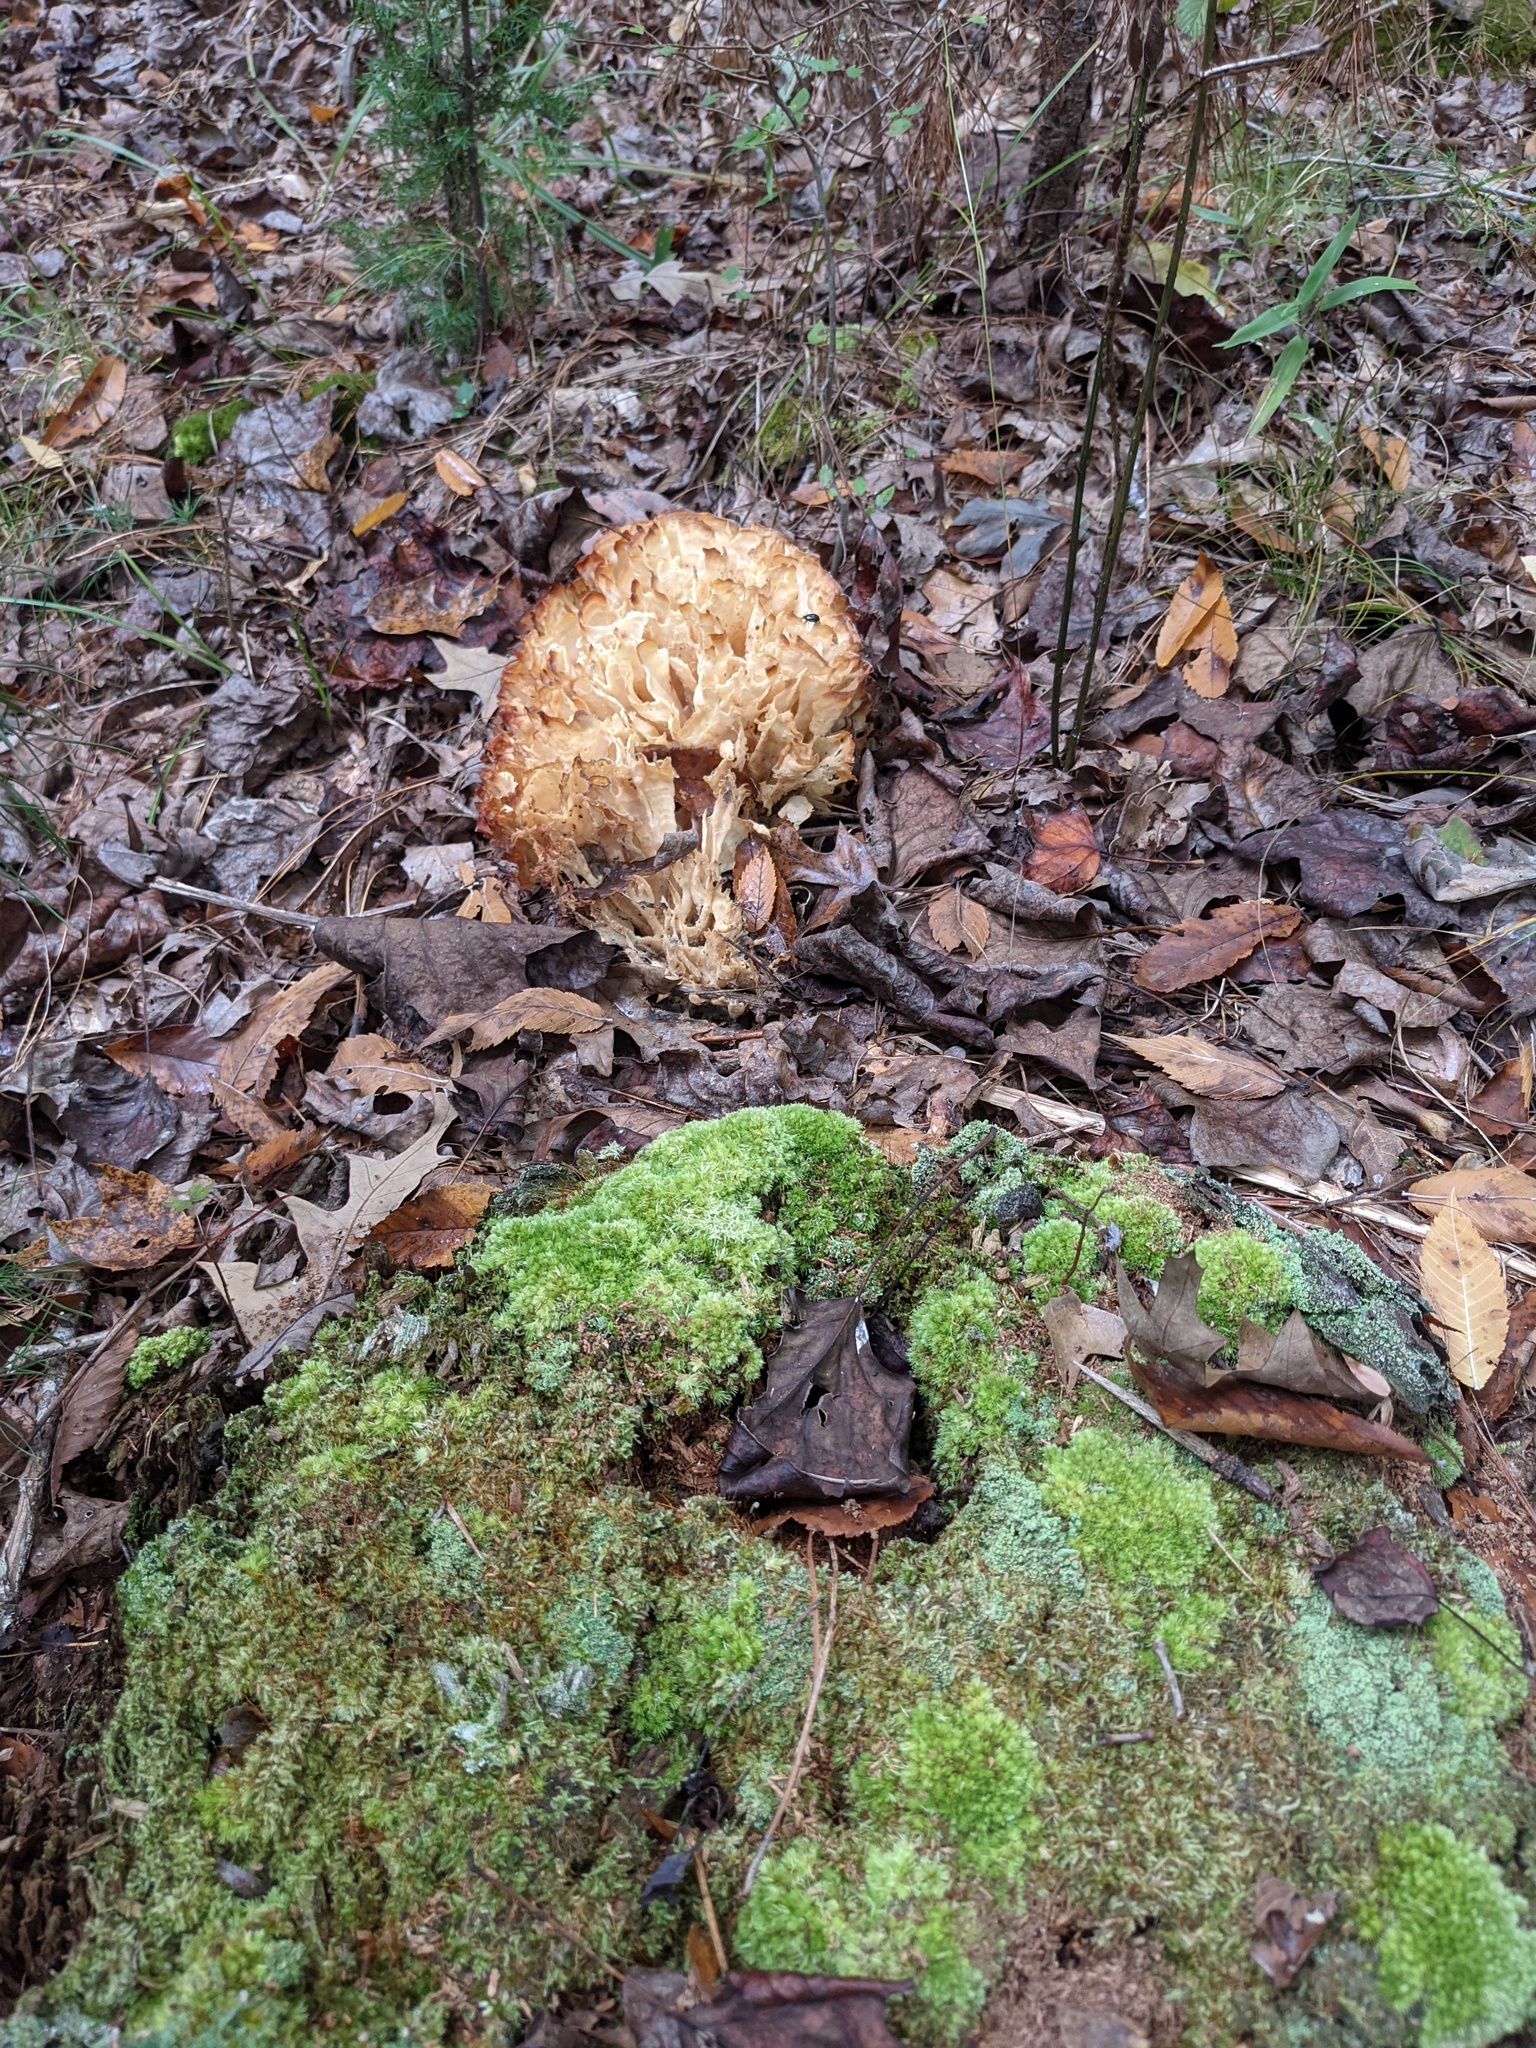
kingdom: Fungi
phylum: Basidiomycota
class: Agaricomycetes
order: Polyporales
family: Sparassidaceae
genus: Sparassis
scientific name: Sparassis spathulata
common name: Eastern cauliflower mushroom
